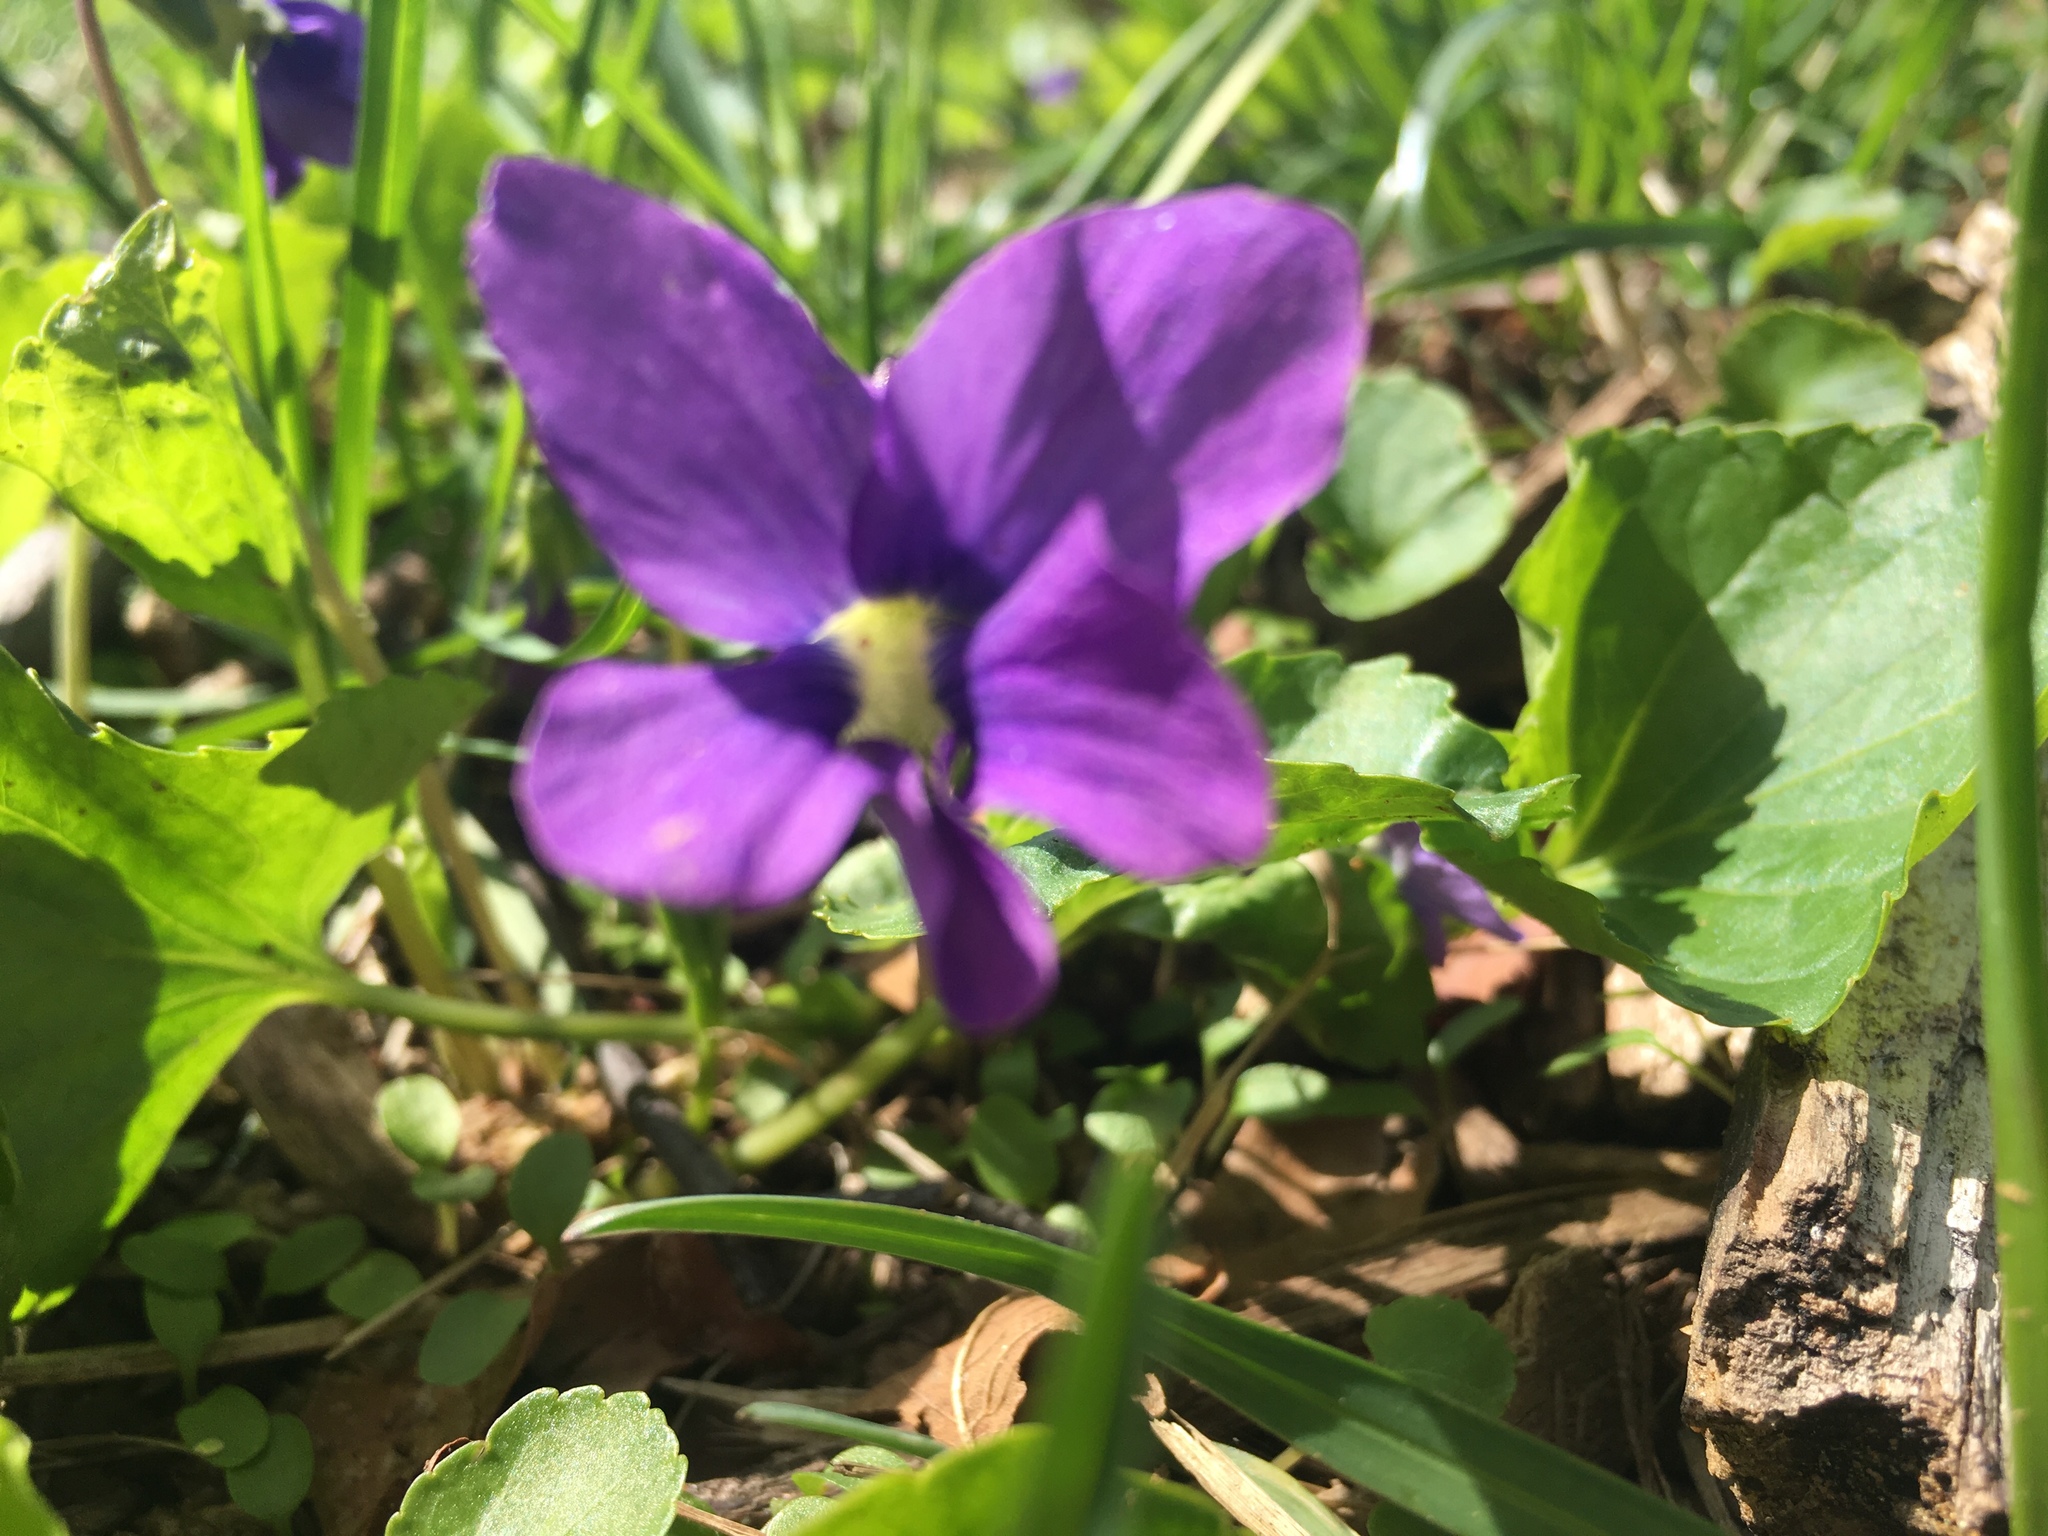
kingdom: Plantae
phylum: Tracheophyta
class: Magnoliopsida
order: Malpighiales
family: Violaceae
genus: Viola
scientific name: Viola sororia
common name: Dooryard violet
